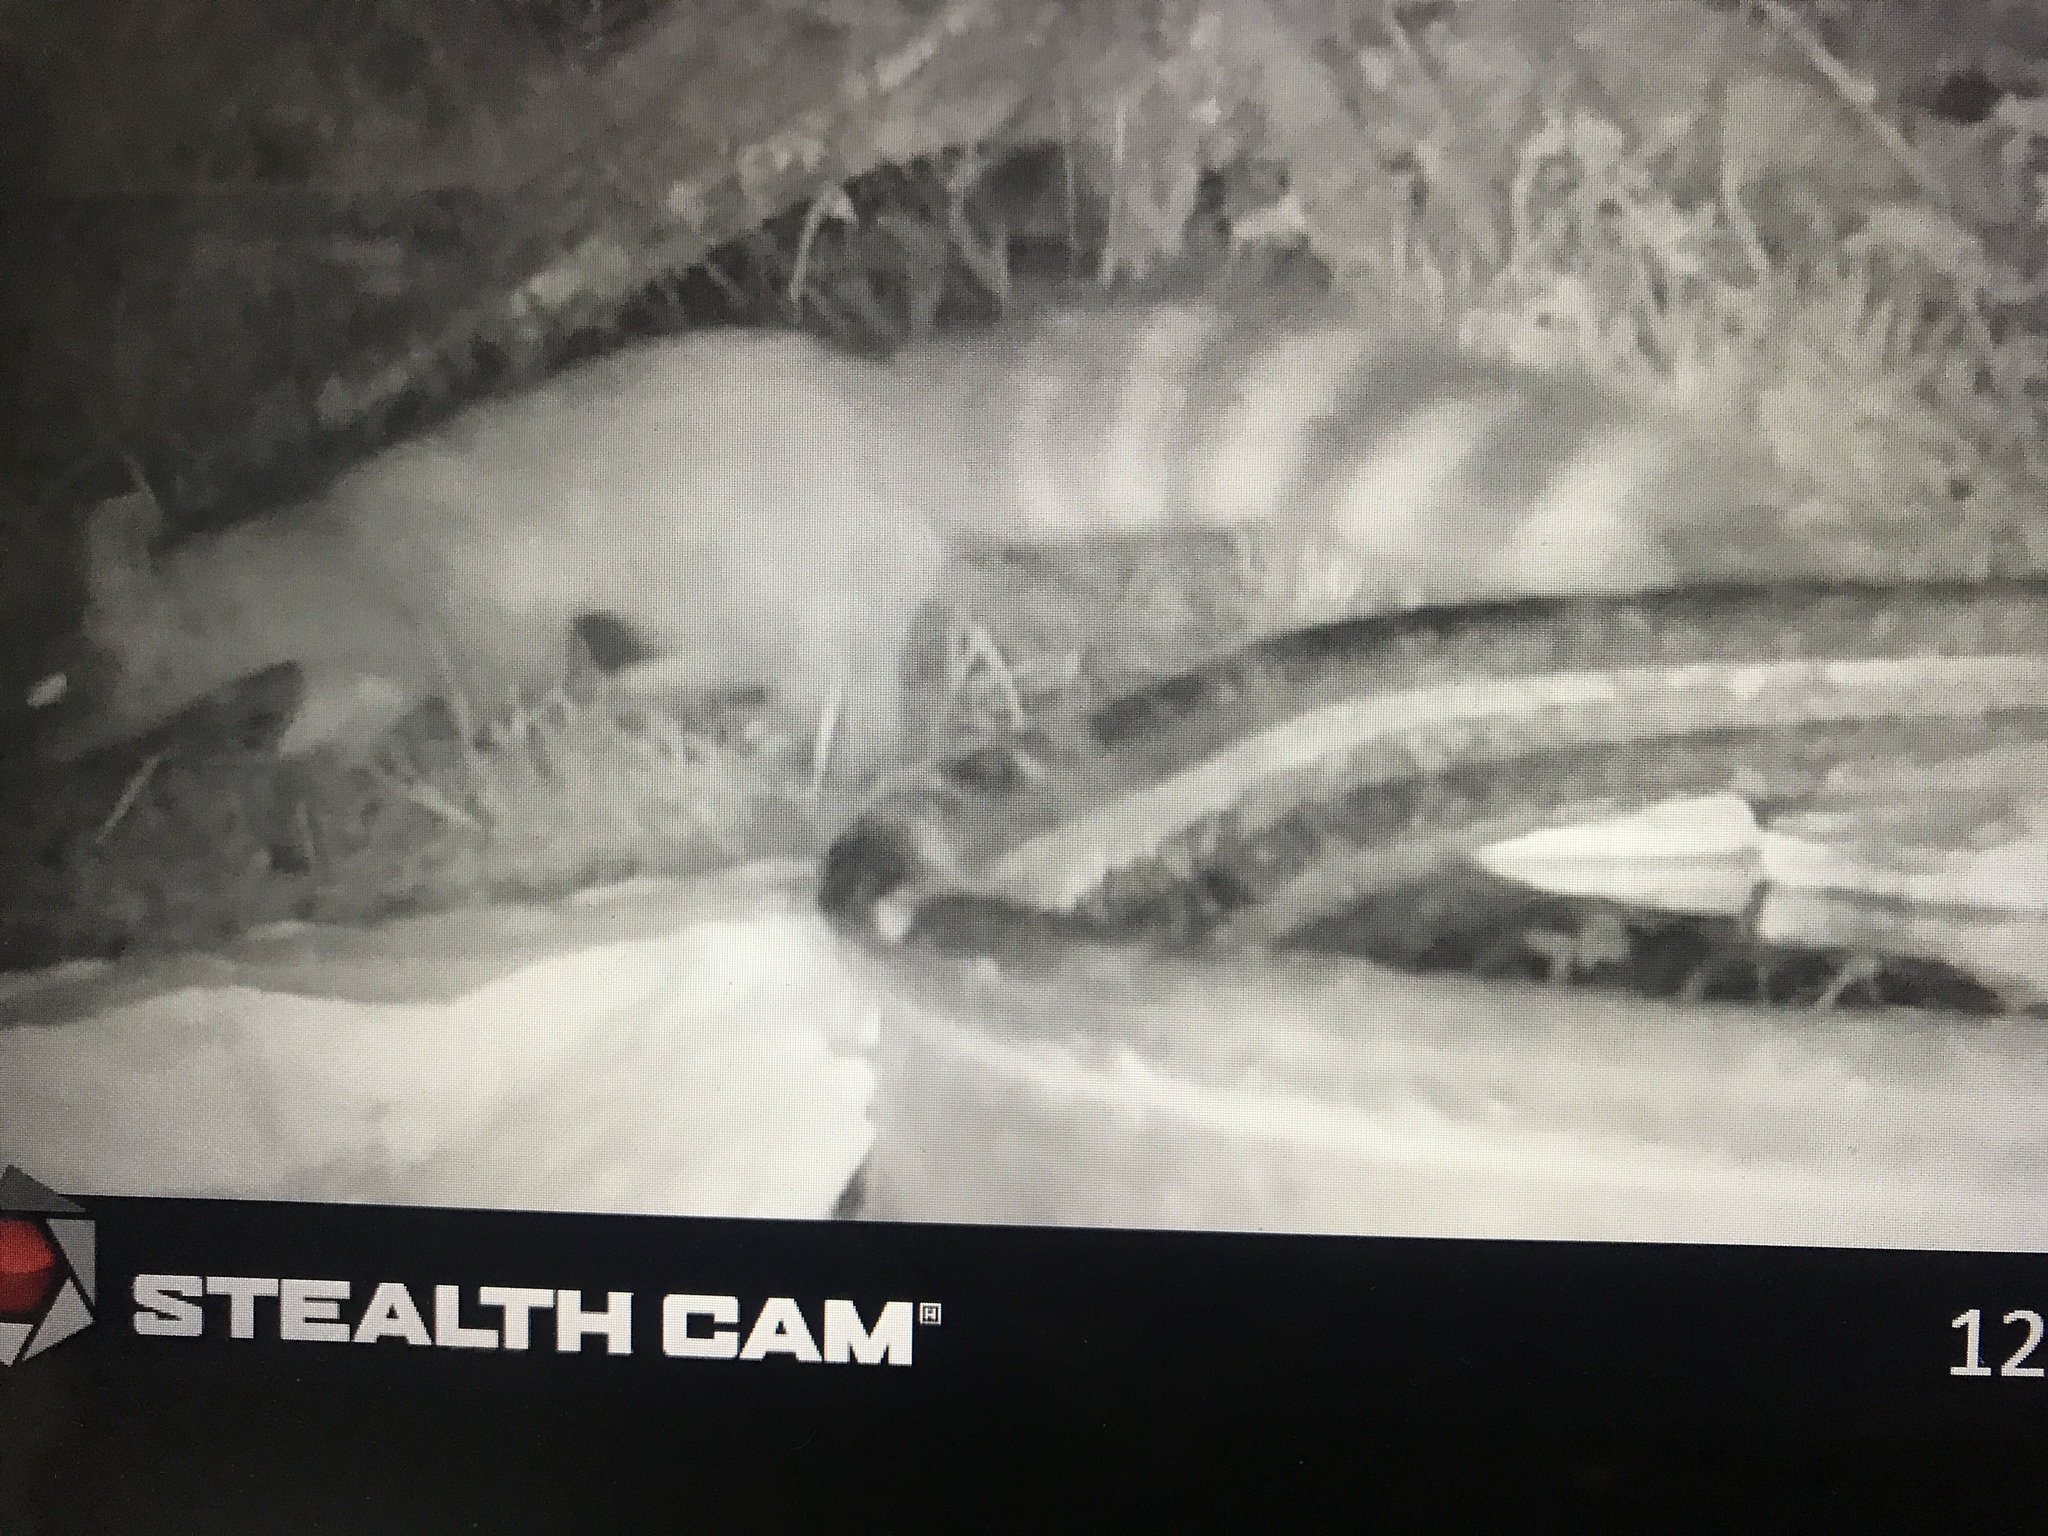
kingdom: Animalia
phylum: Chordata
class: Mammalia
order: Carnivora
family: Procyonidae
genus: Bassariscus
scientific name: Bassariscus astutus
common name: Ringtail
